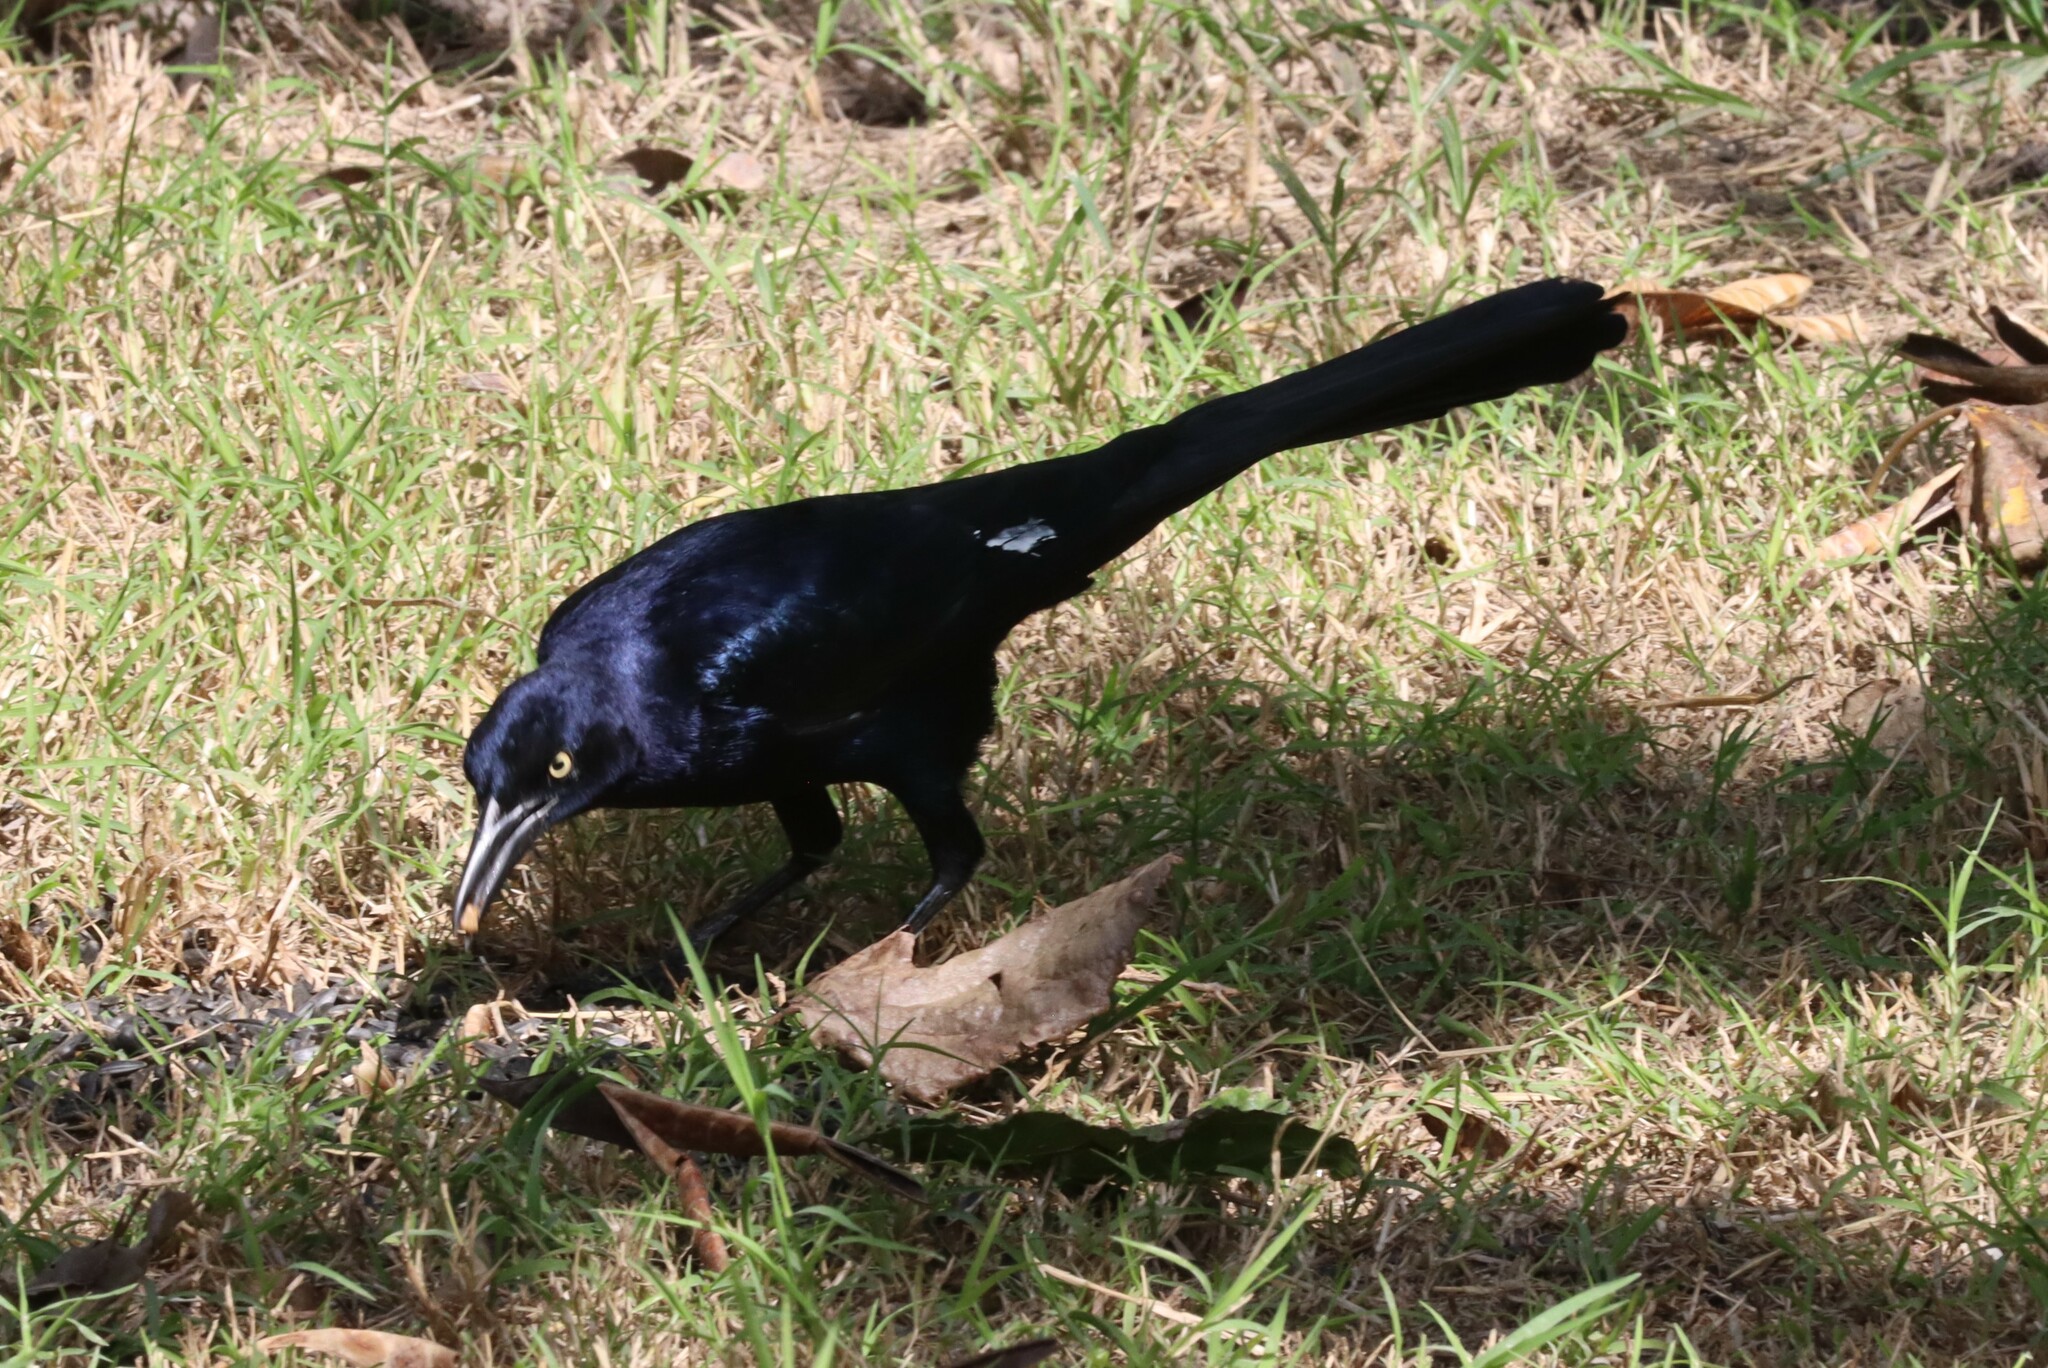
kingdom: Animalia
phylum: Chordata
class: Aves
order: Passeriformes
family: Icteridae
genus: Quiscalus
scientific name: Quiscalus mexicanus
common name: Great-tailed grackle
